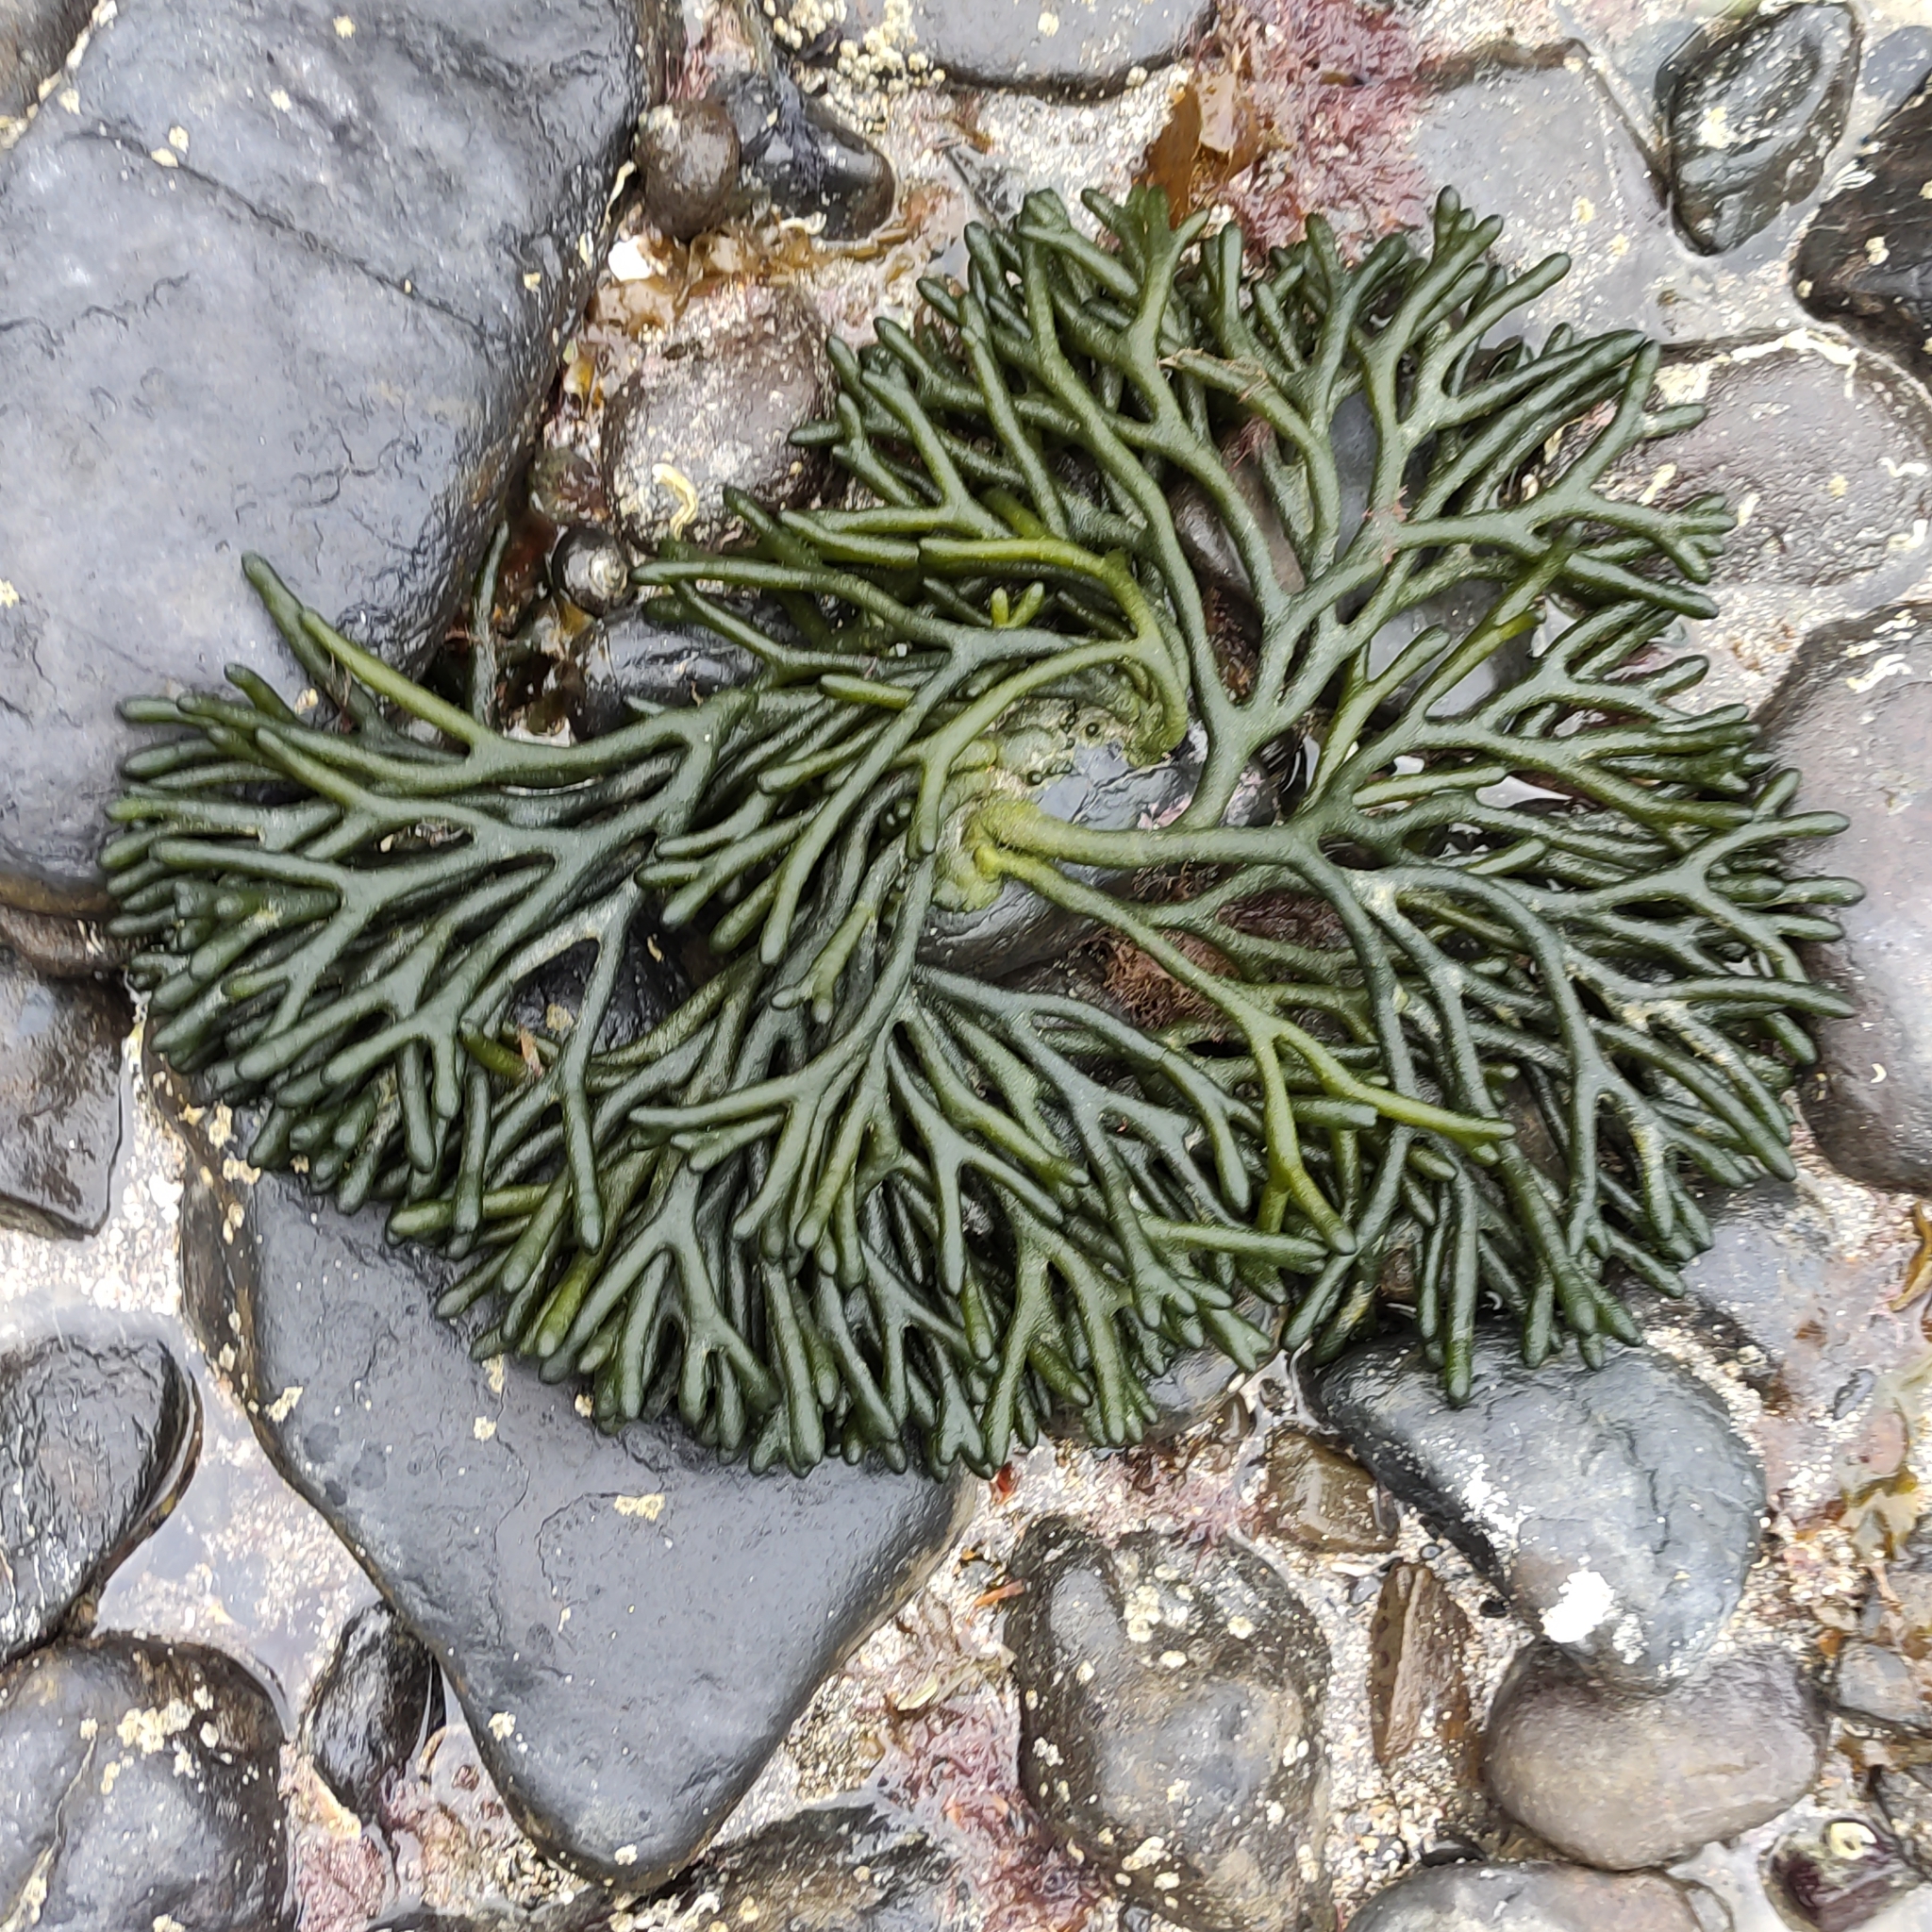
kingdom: Plantae
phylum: Chlorophyta
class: Ulvophyceae
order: Bryopsidales
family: Codiaceae
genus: Codium
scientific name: Codium fragile
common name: Dead man's fingers
